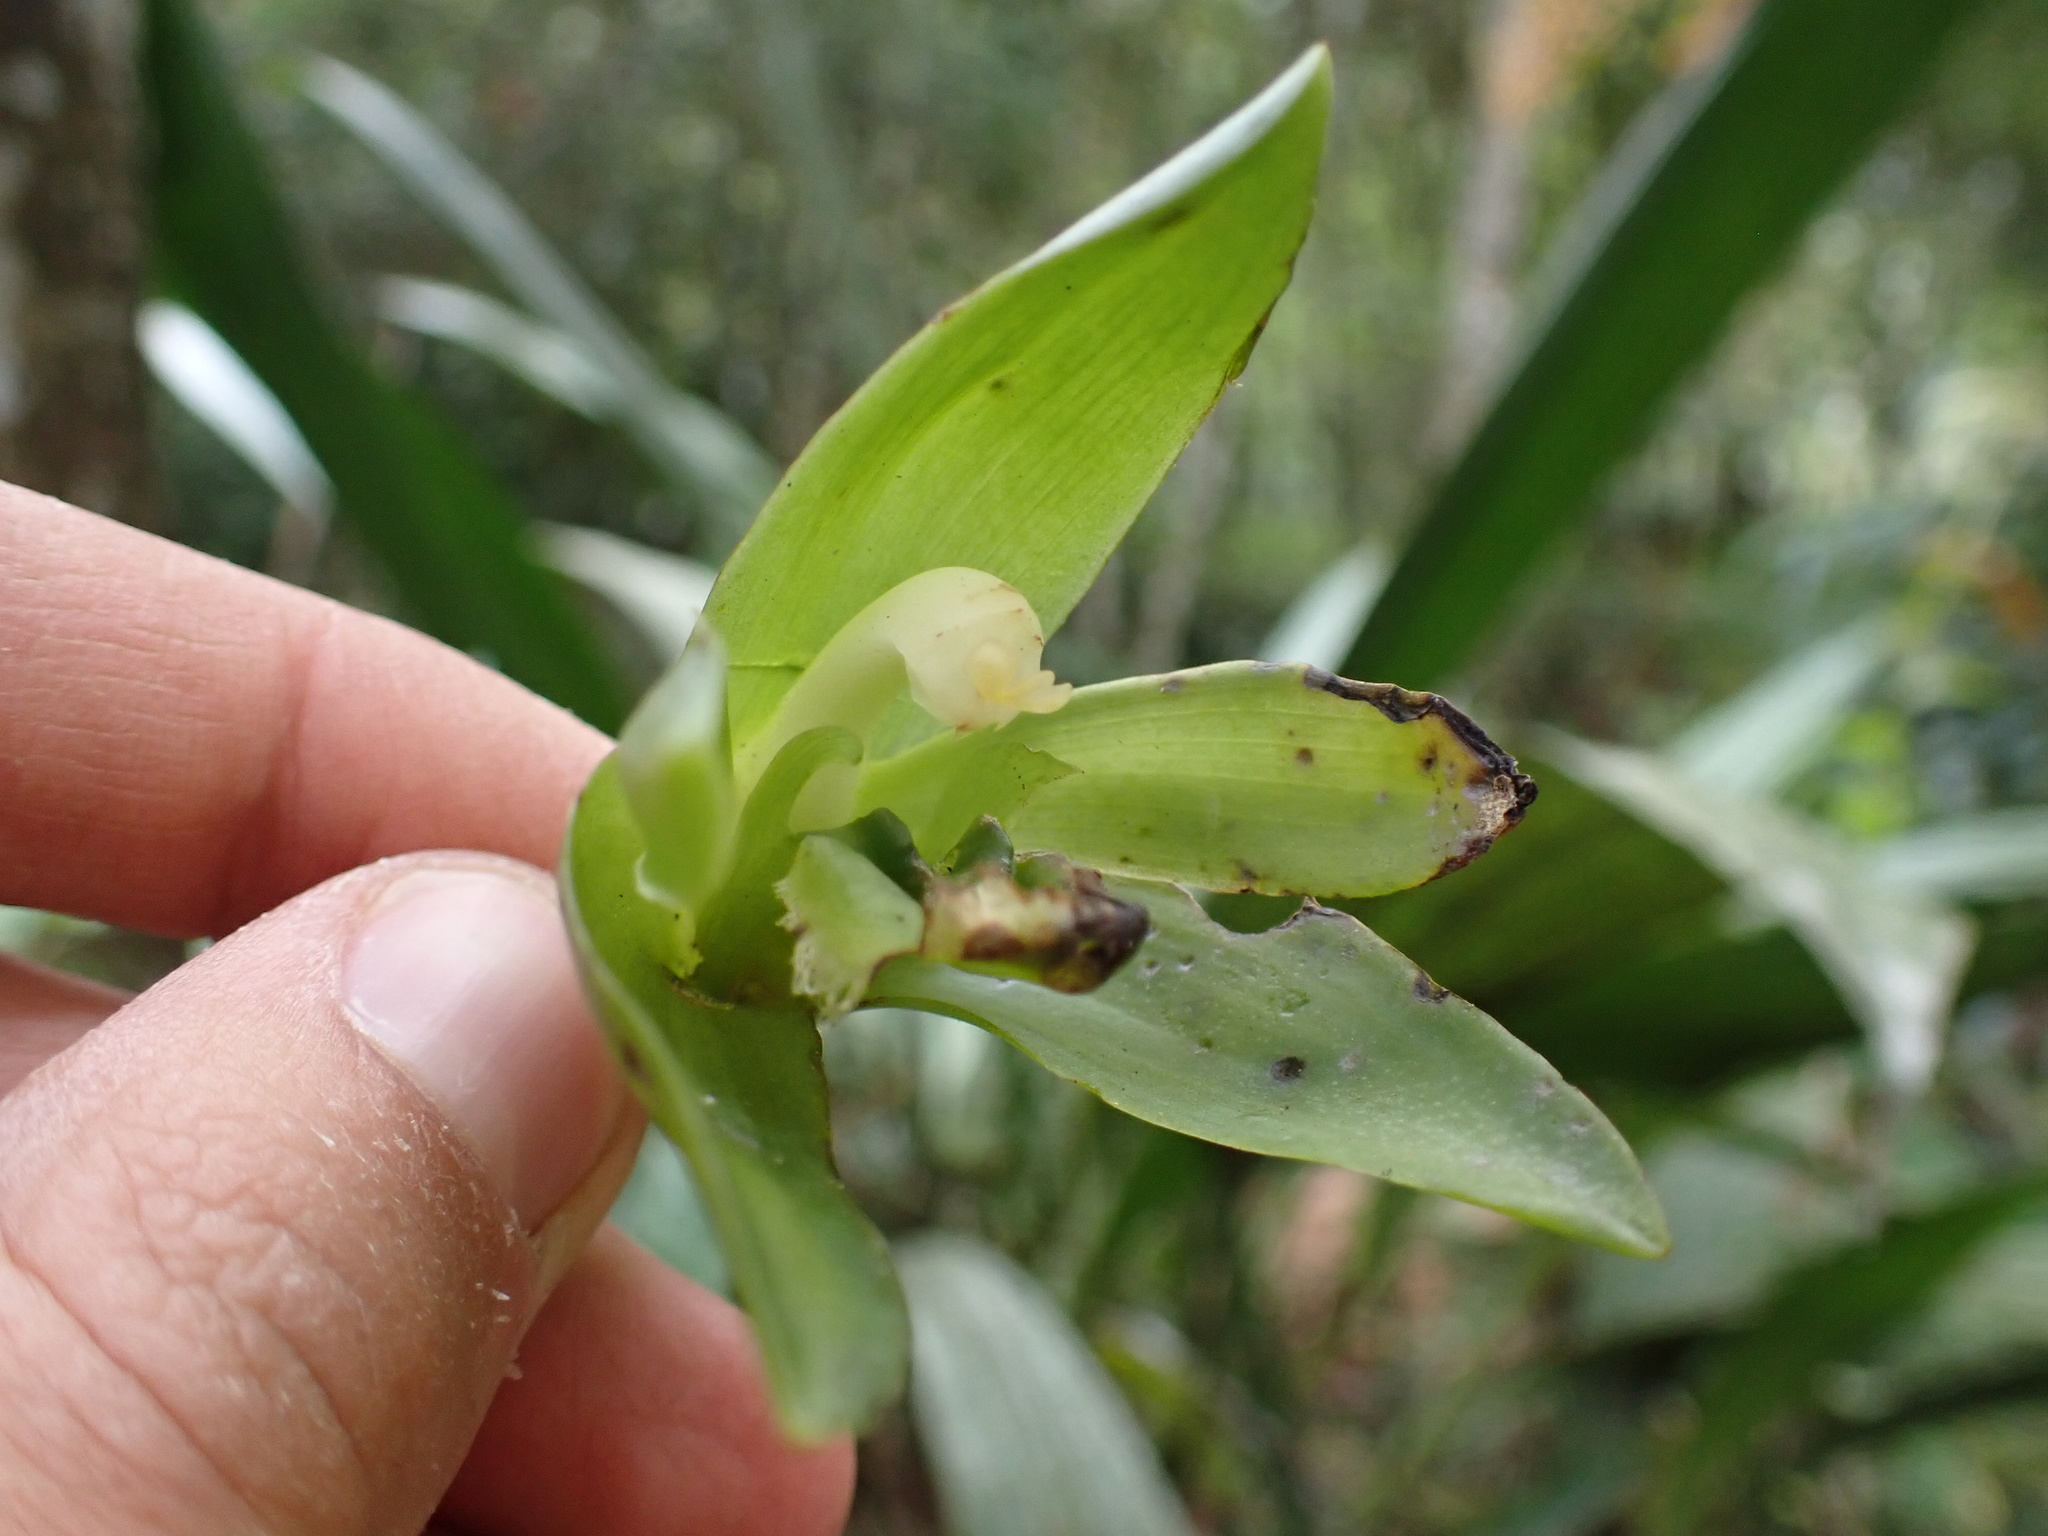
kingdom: Plantae
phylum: Tracheophyta
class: Liliopsida
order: Asparagales
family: Orchidaceae
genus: Ida
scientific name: Ida locusta
